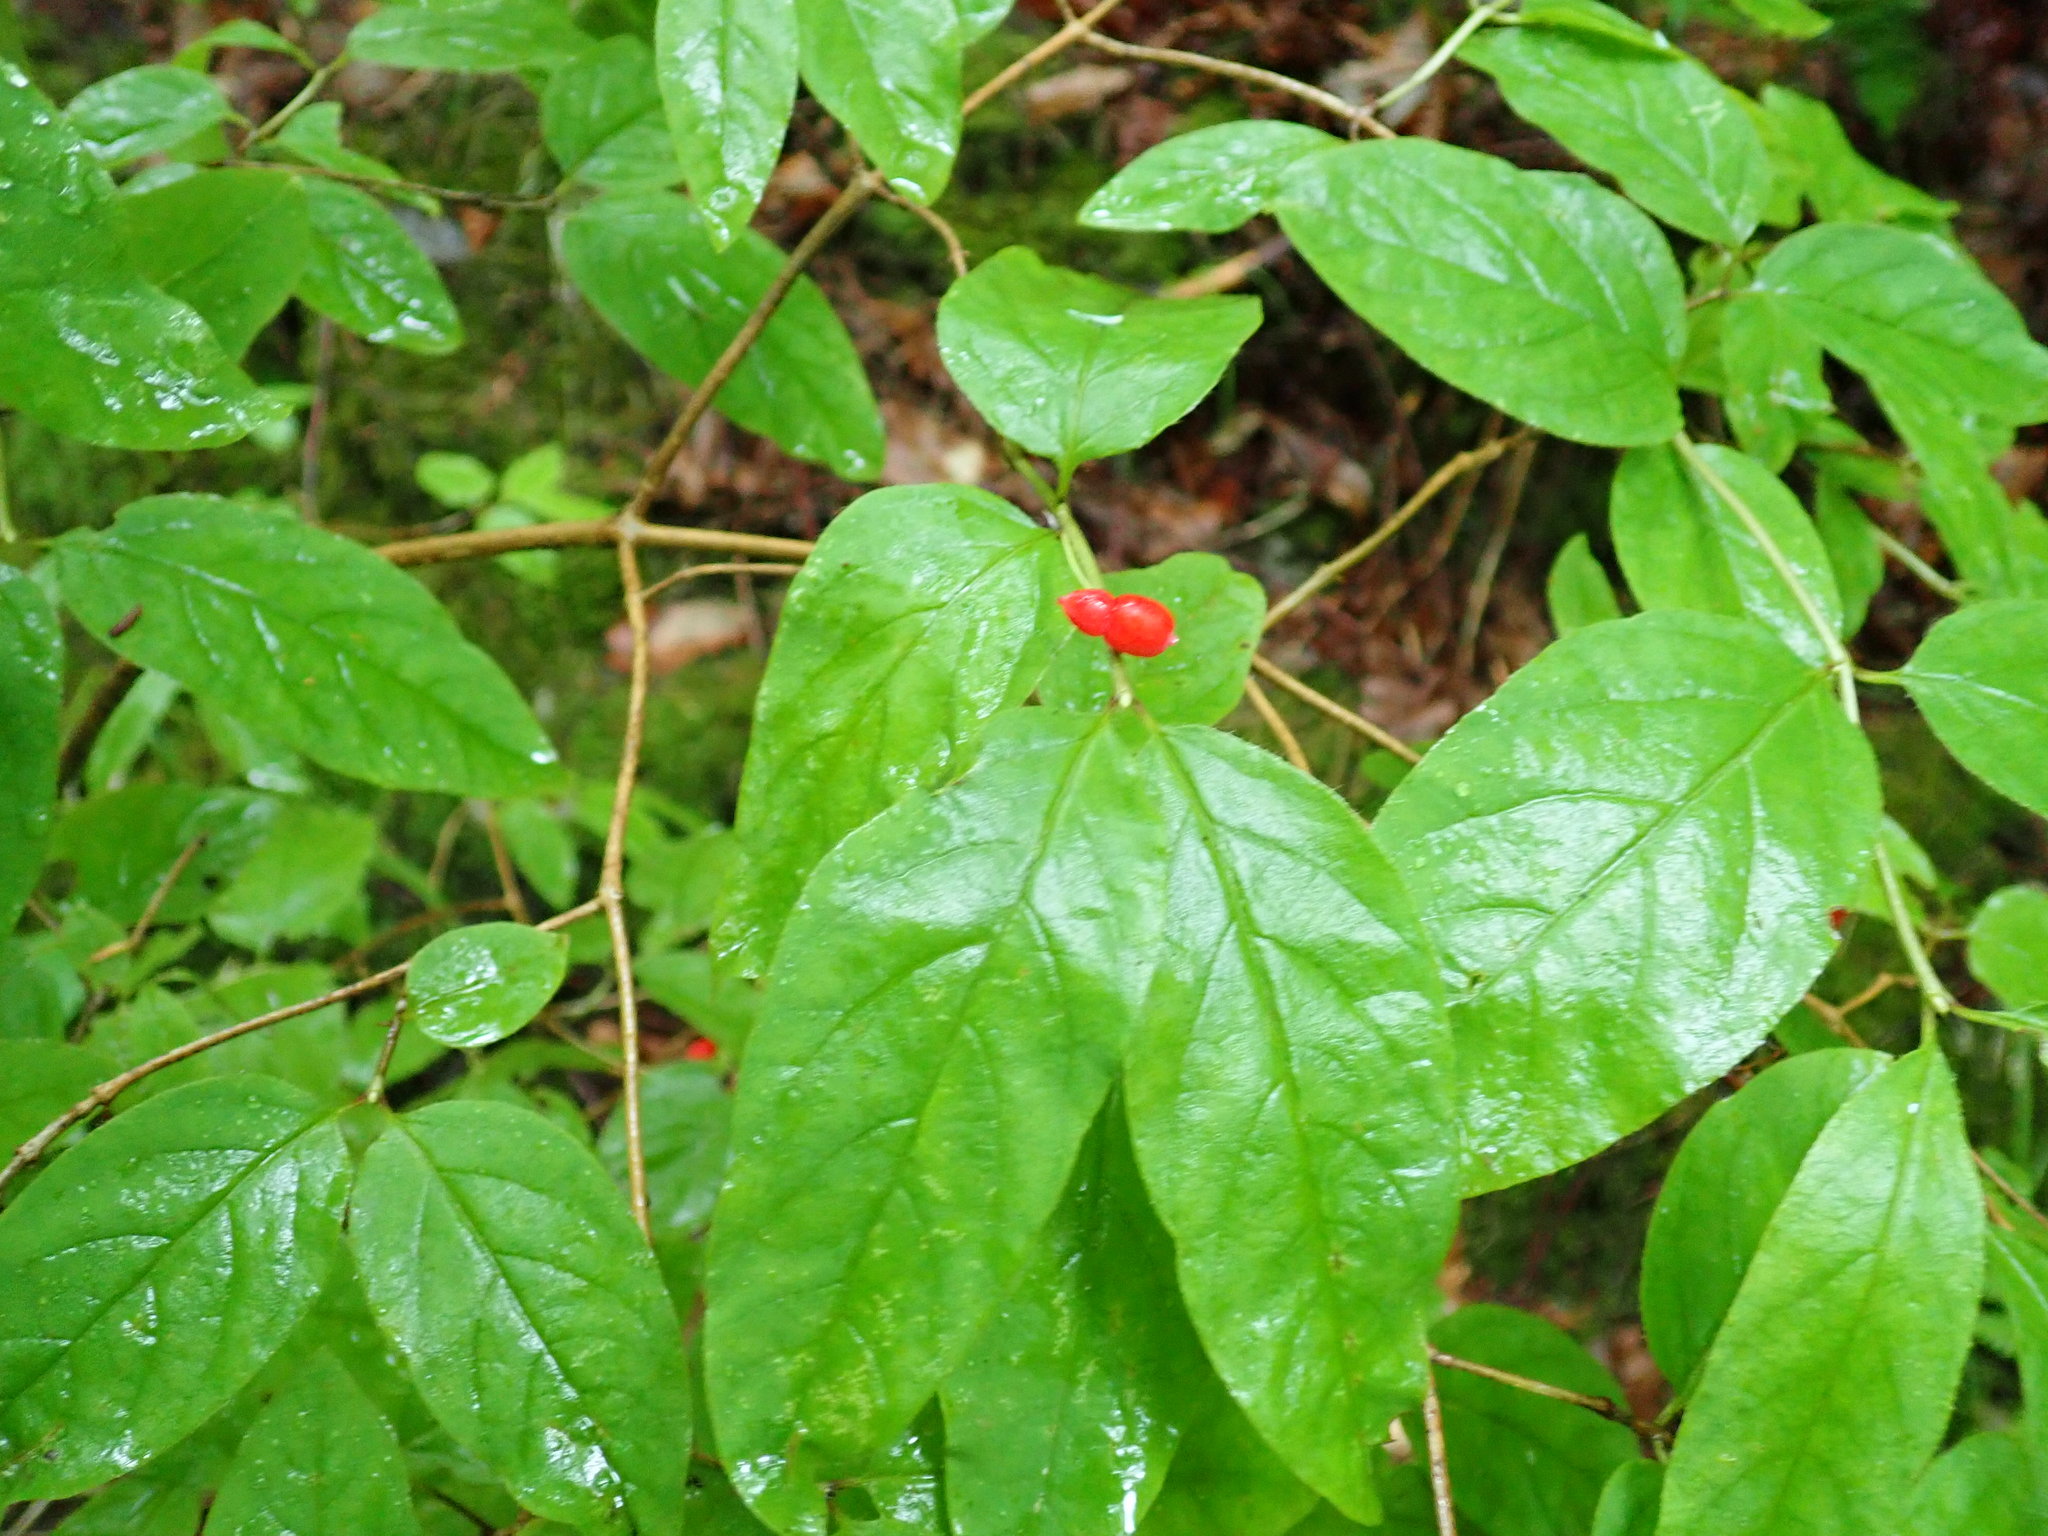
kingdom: Plantae
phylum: Tracheophyta
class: Magnoliopsida
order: Dipsacales
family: Caprifoliaceae
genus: Lonicera
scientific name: Lonicera canadensis
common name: American fly-honeysuckle
